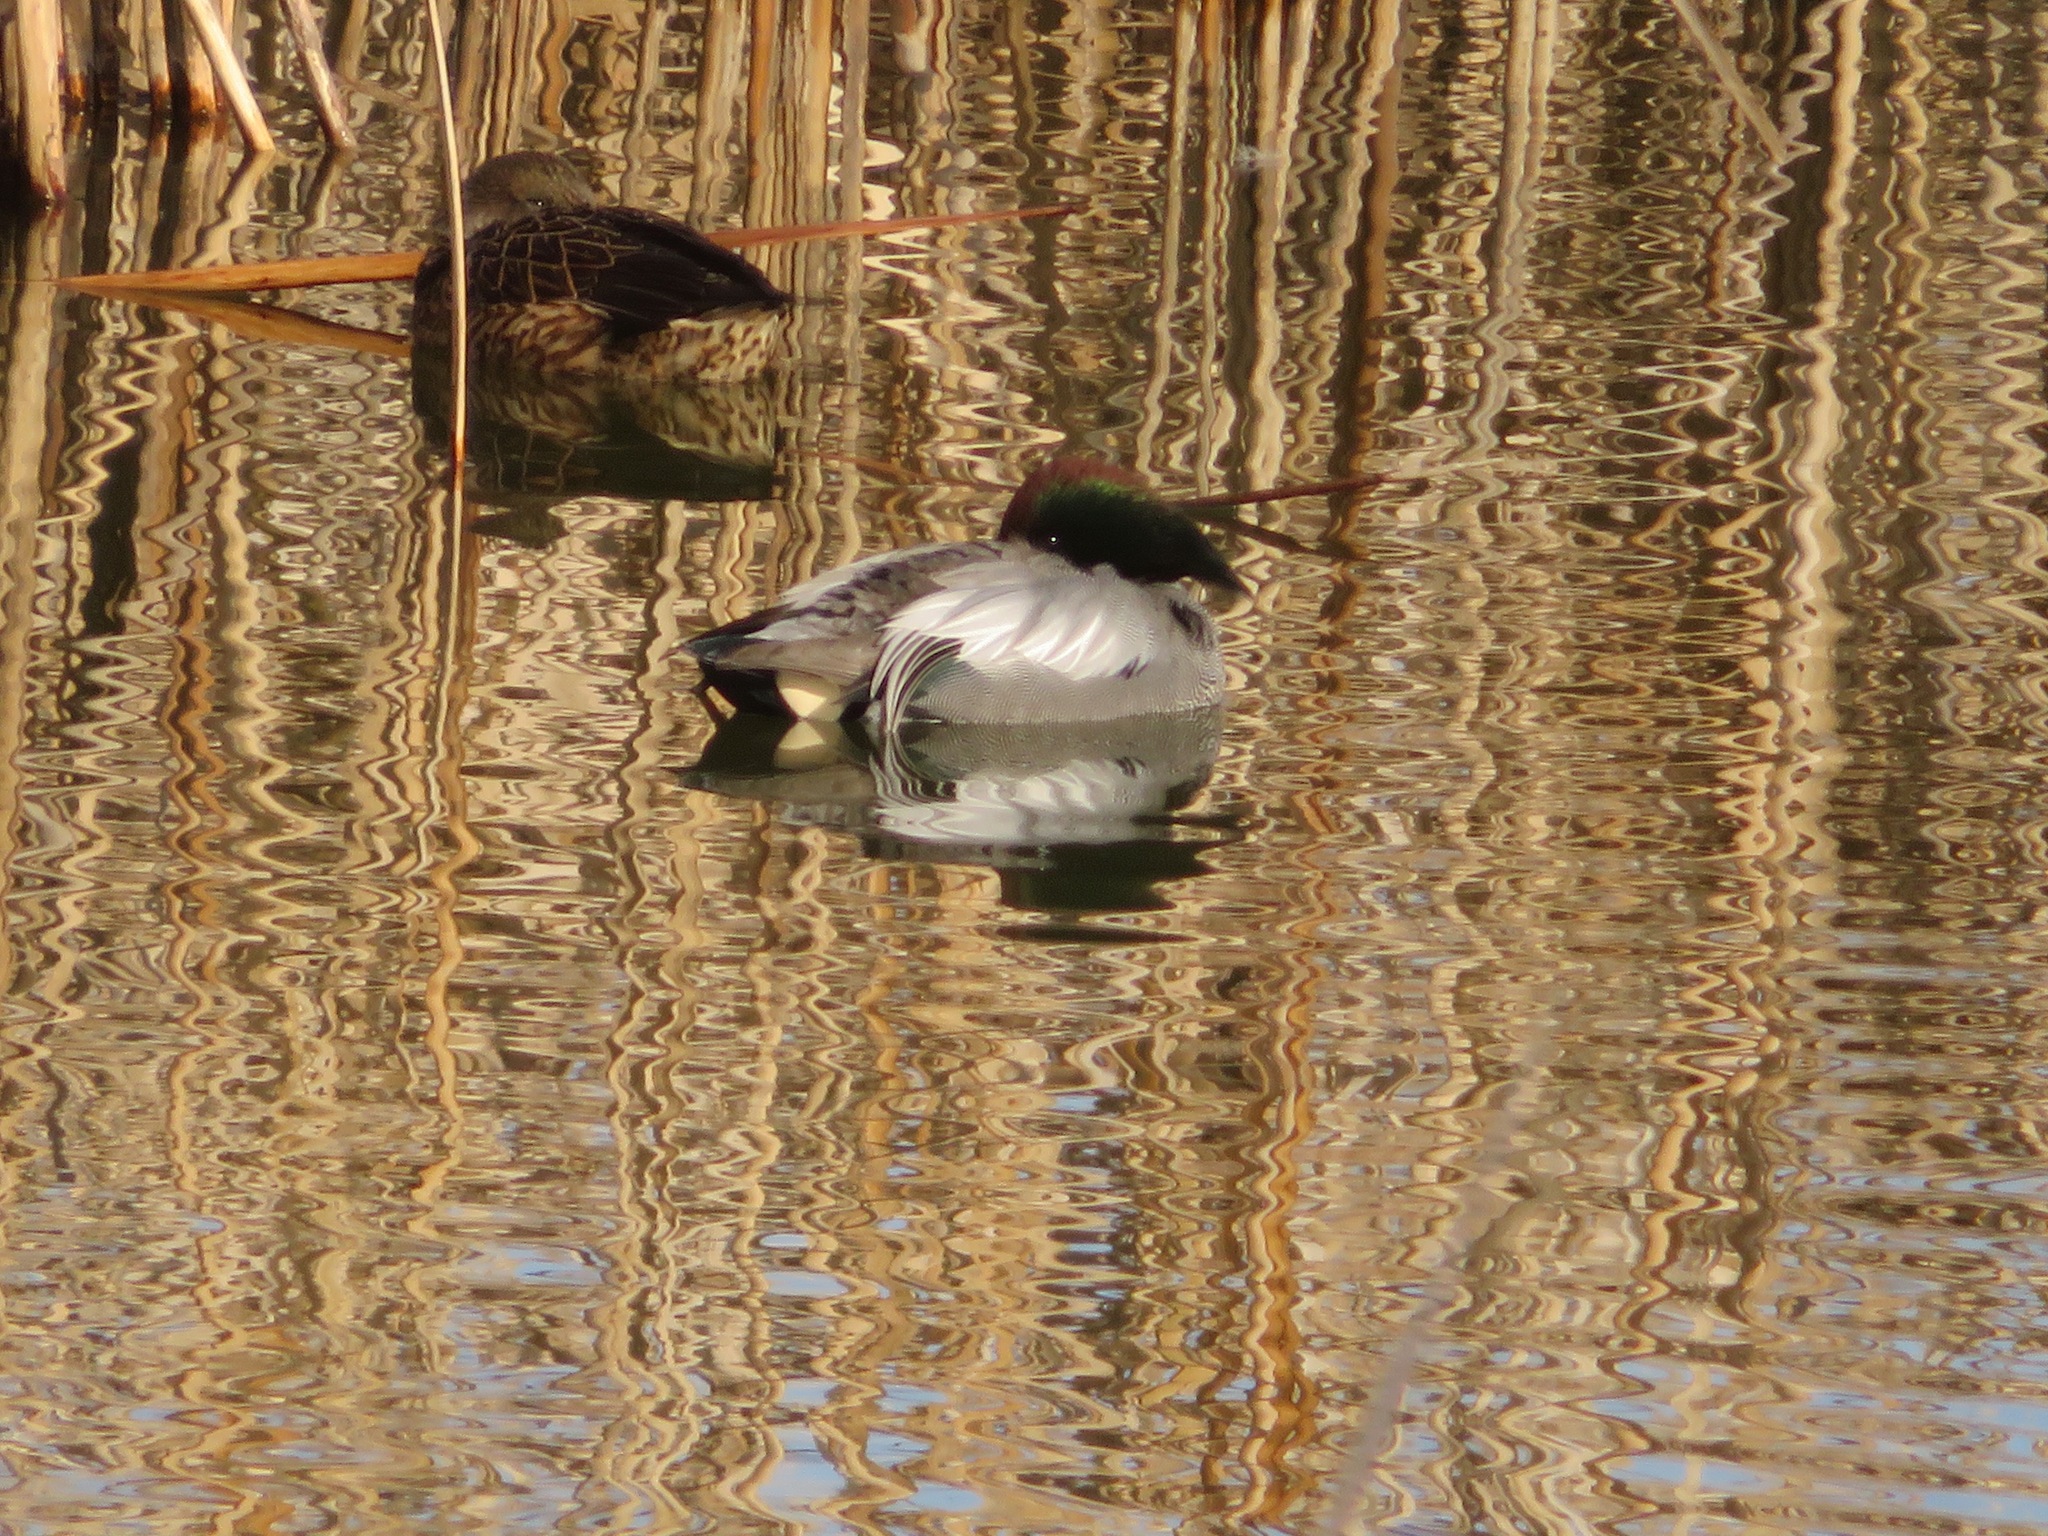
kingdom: Animalia
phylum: Chordata
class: Aves
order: Anseriformes
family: Anatidae
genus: Mareca
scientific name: Mareca falcata
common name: Falcated duck
